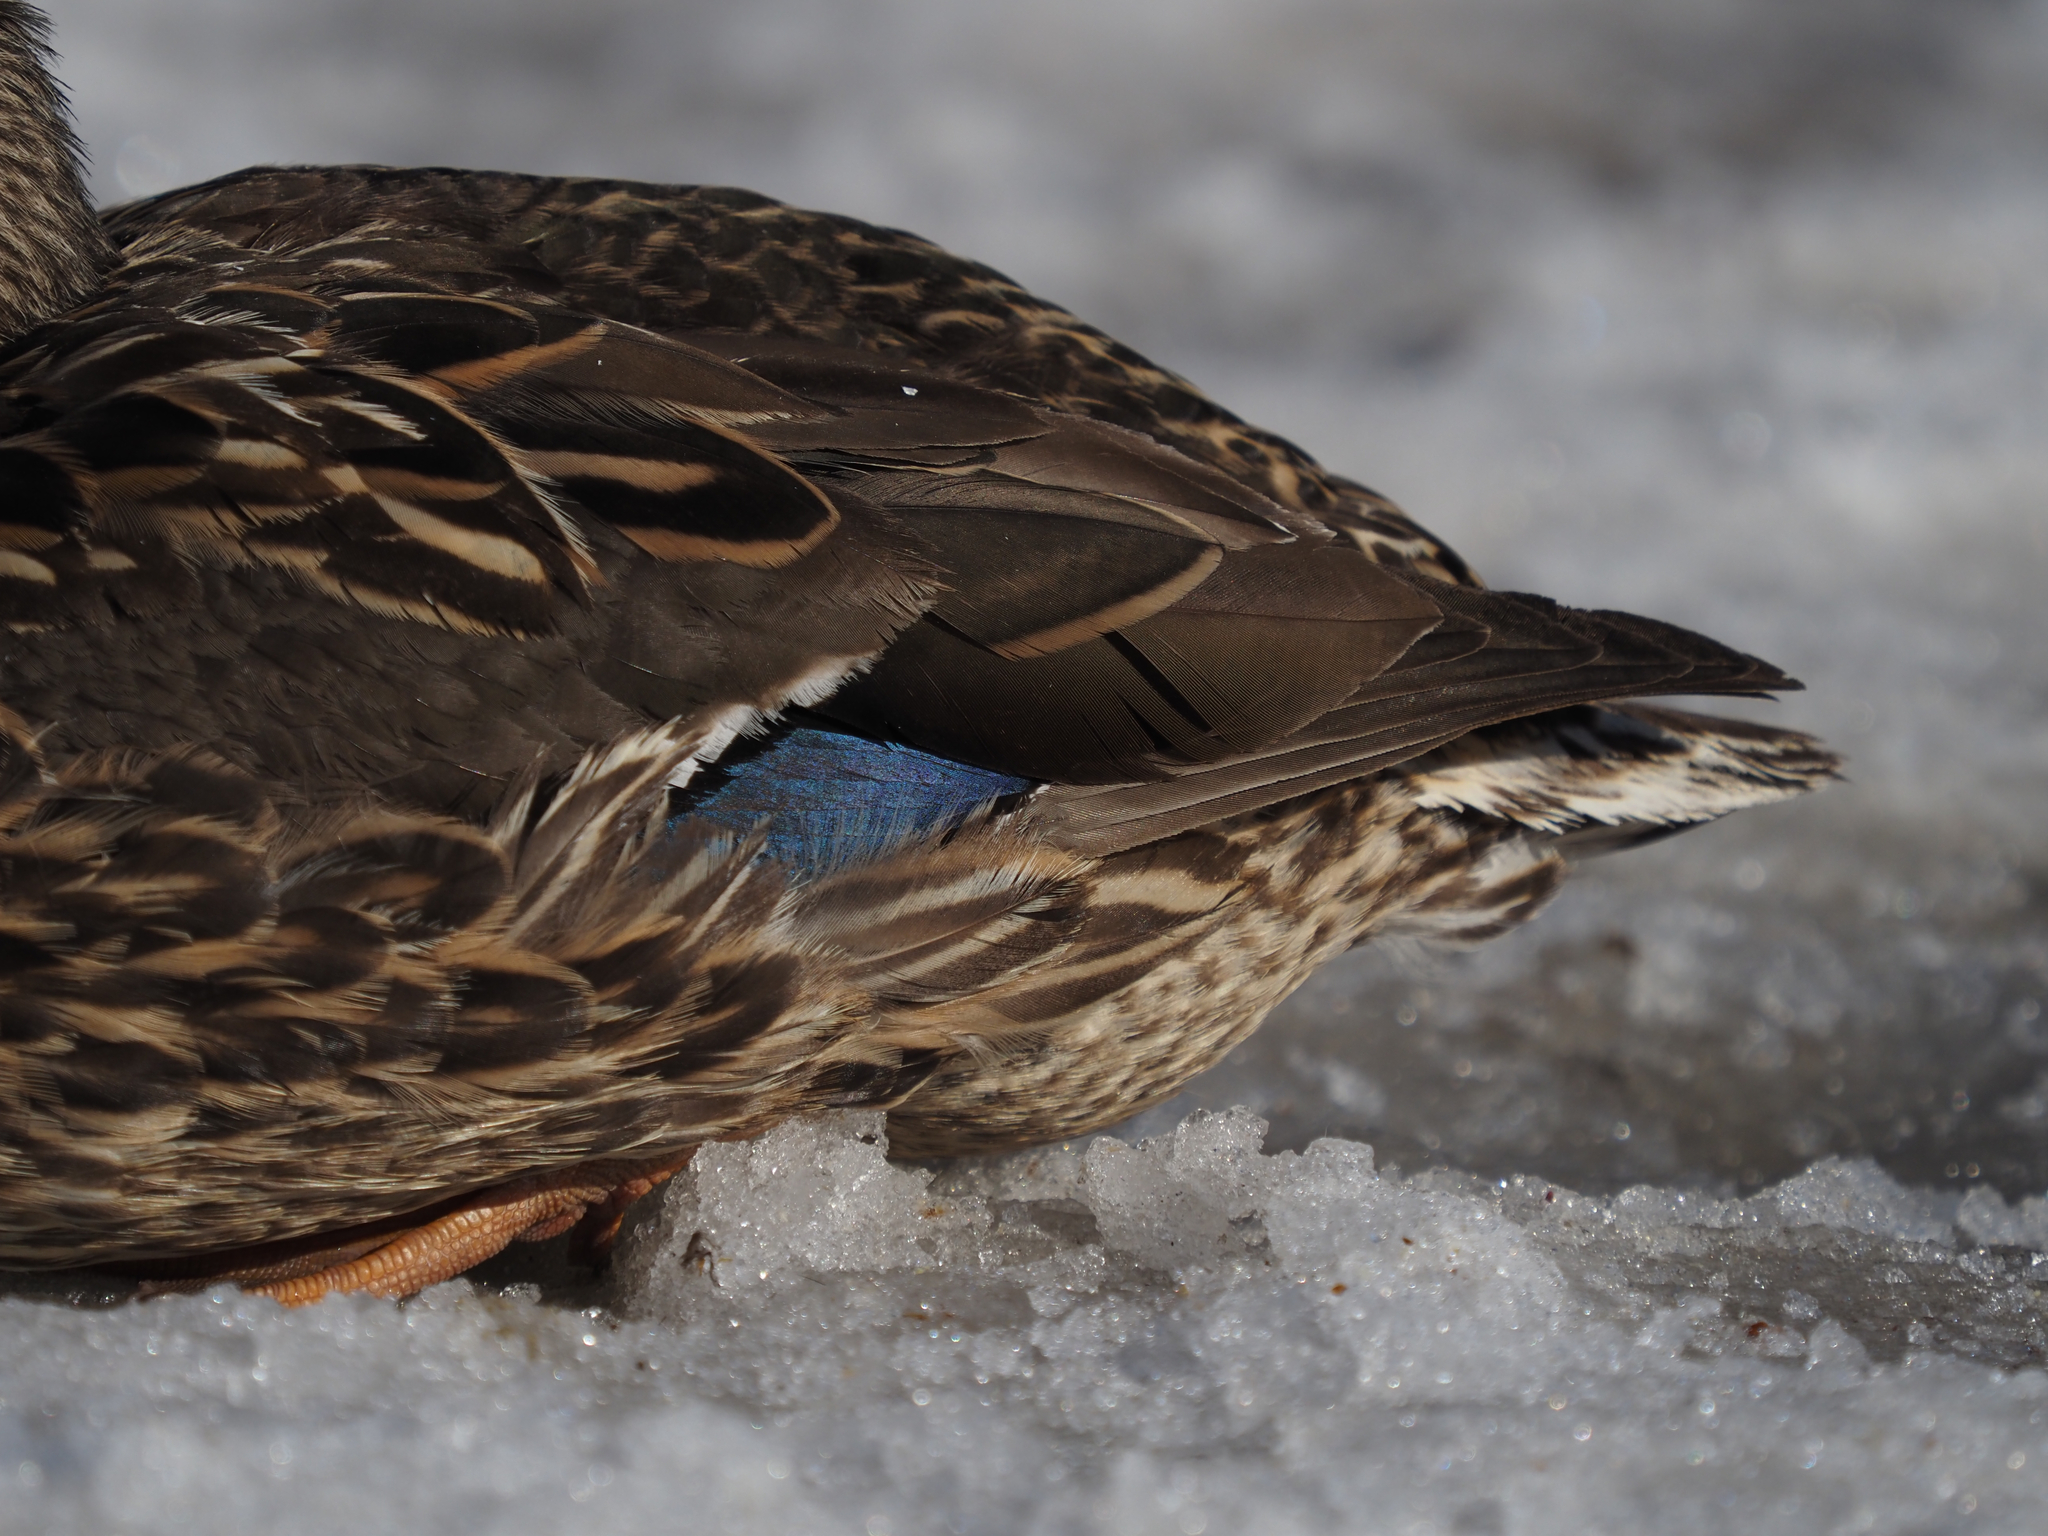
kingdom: Animalia
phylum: Chordata
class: Aves
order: Anseriformes
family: Anatidae
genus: Anas
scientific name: Anas platyrhynchos
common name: Mallard
